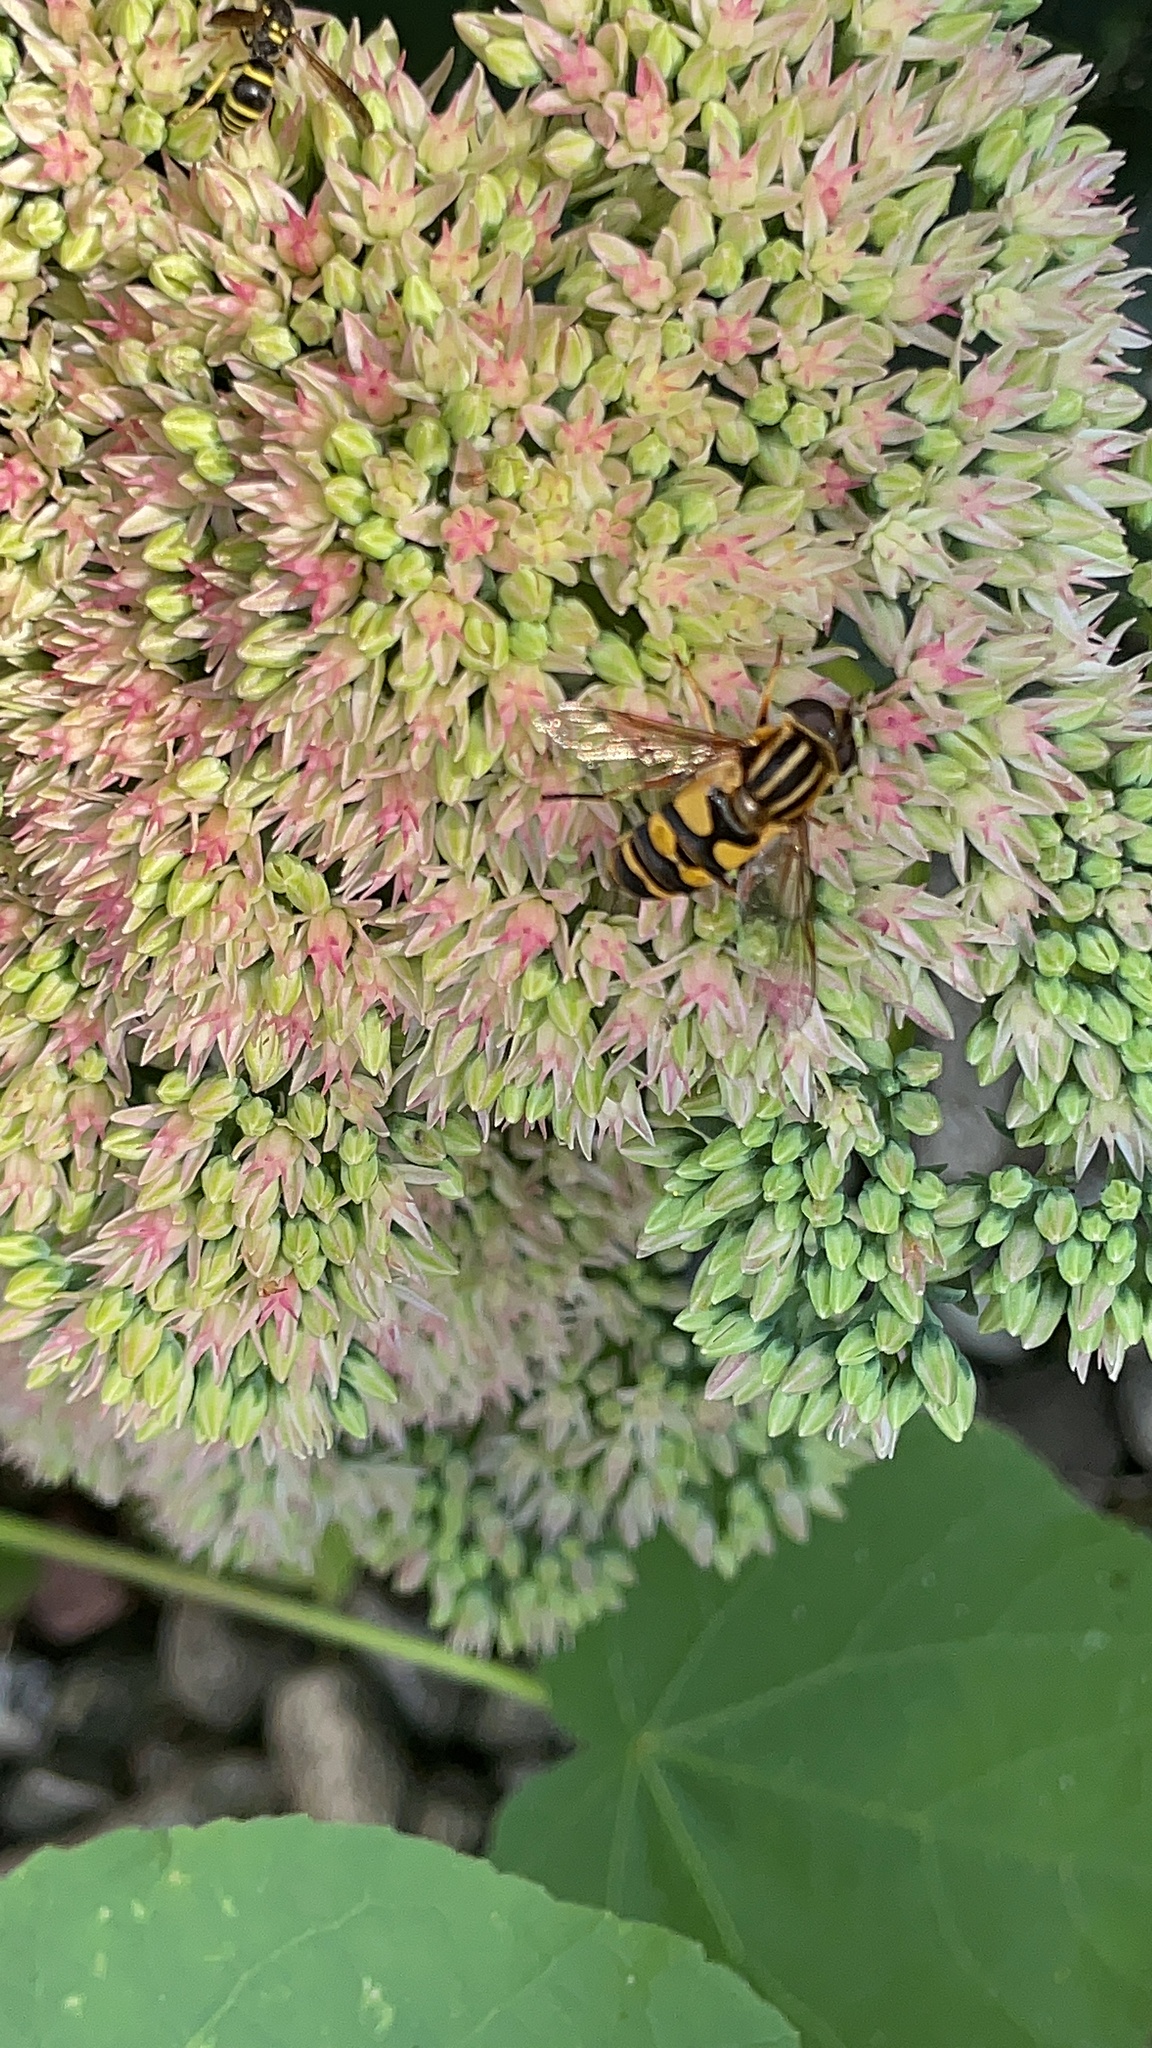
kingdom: Animalia
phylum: Arthropoda
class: Insecta
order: Diptera
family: Syrphidae
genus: Helophilus
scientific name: Helophilus fasciatus
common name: Narrow-headed marsh fly
